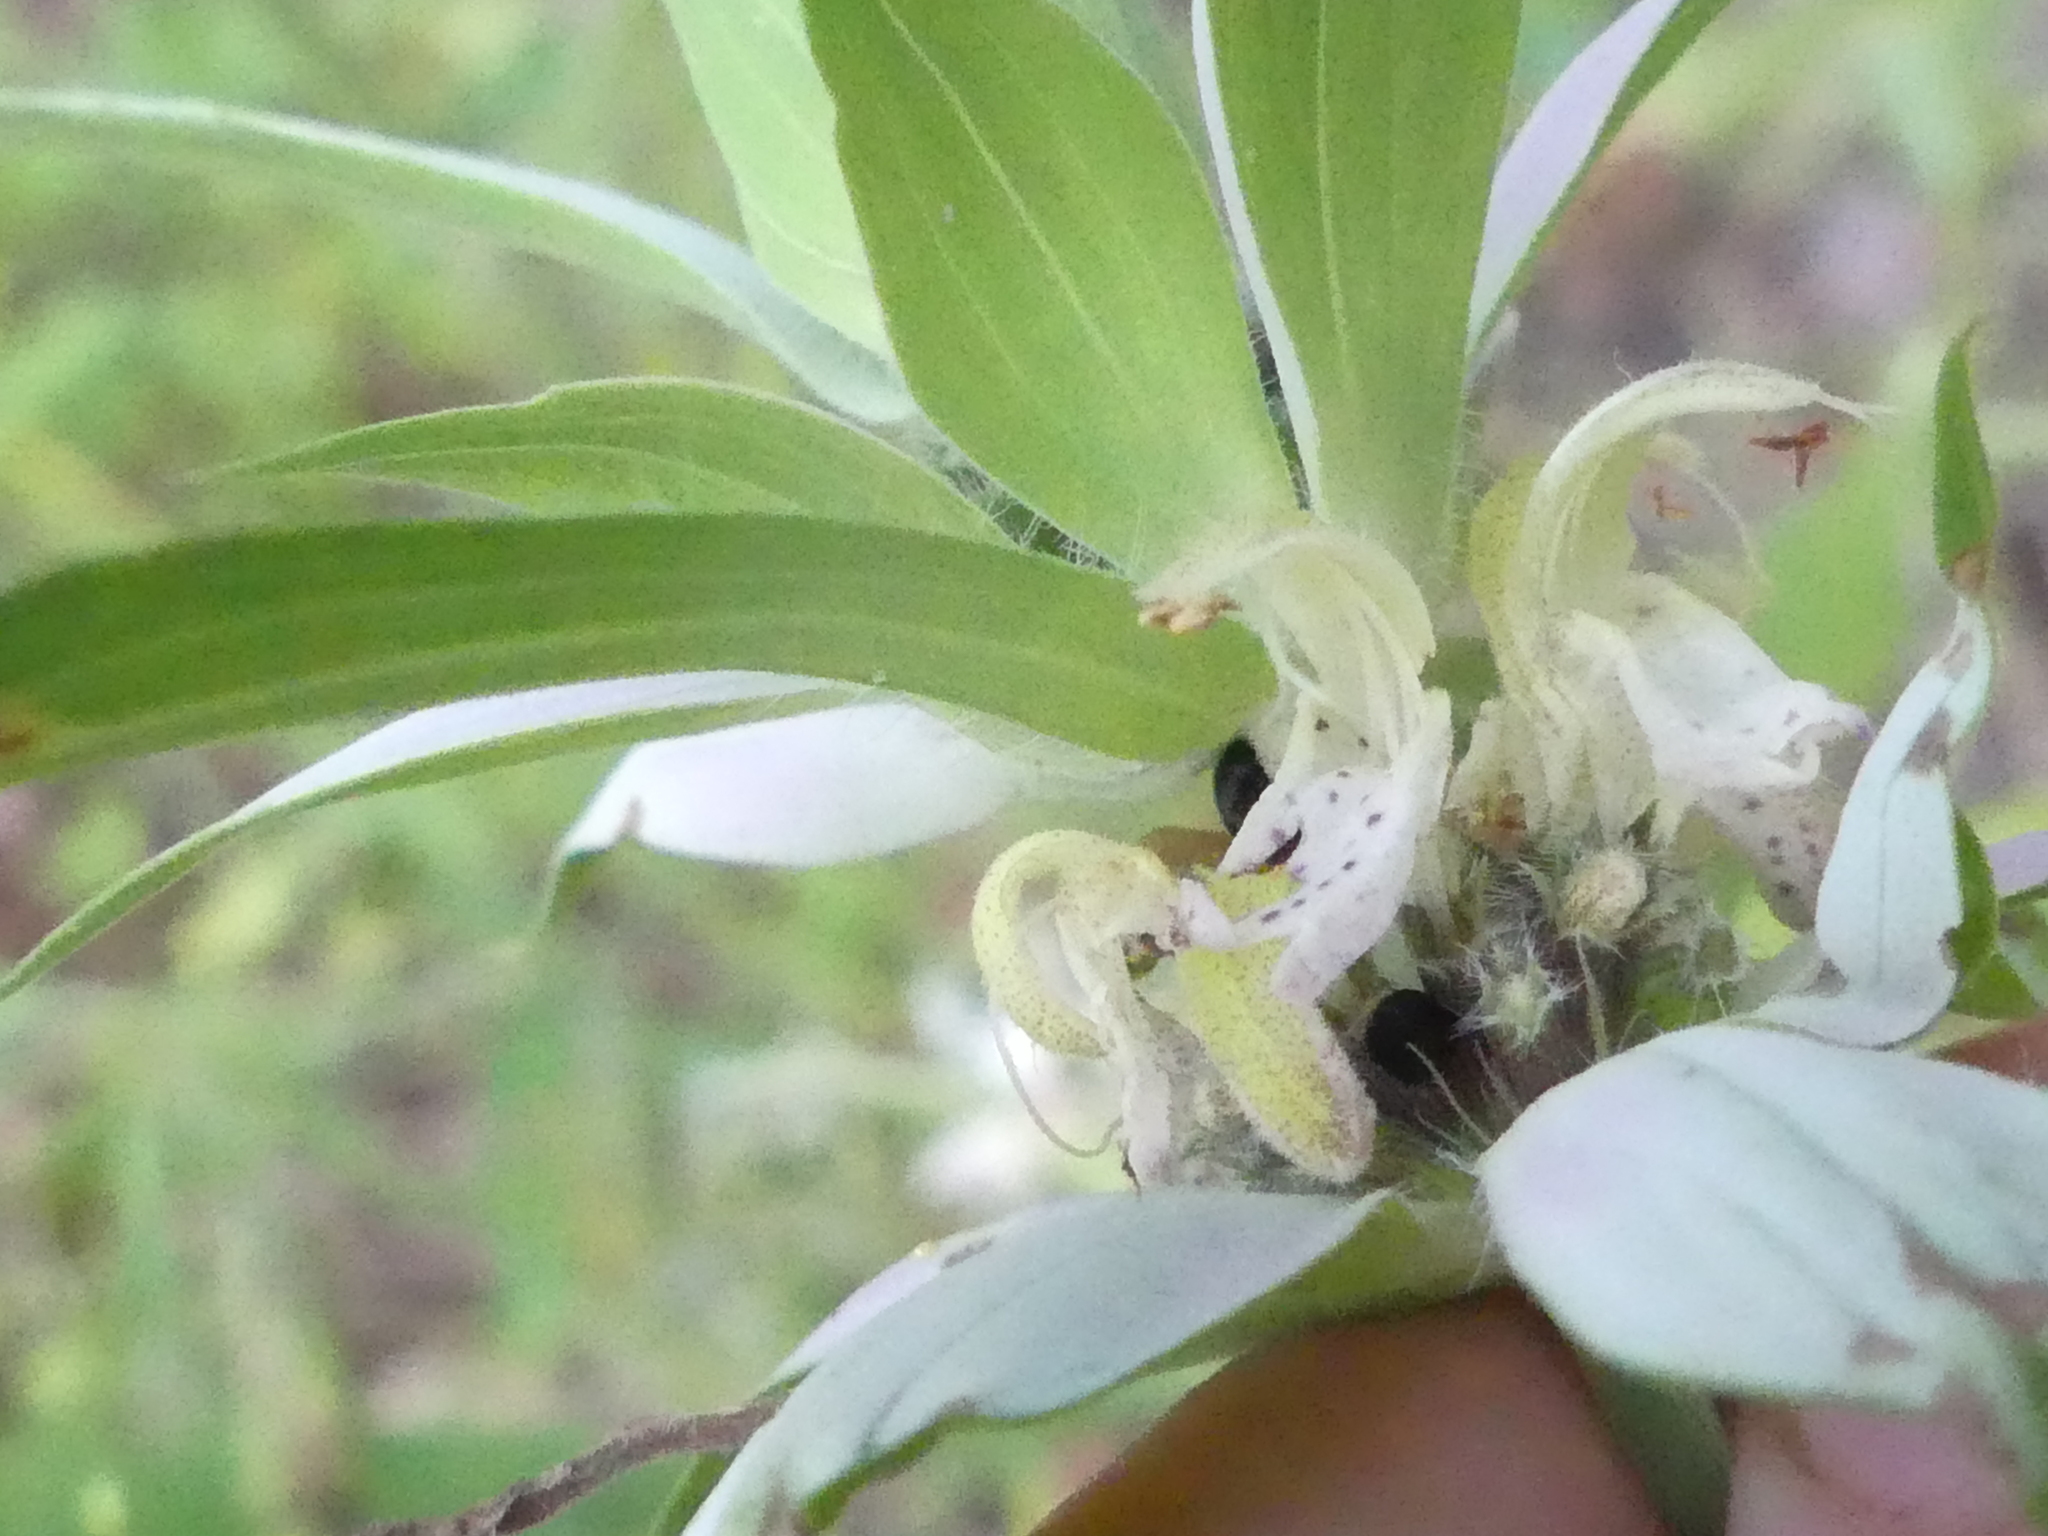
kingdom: Plantae
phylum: Tracheophyta
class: Magnoliopsida
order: Lamiales
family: Lamiaceae
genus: Monarda
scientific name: Monarda punctata
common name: Dotted monarda
